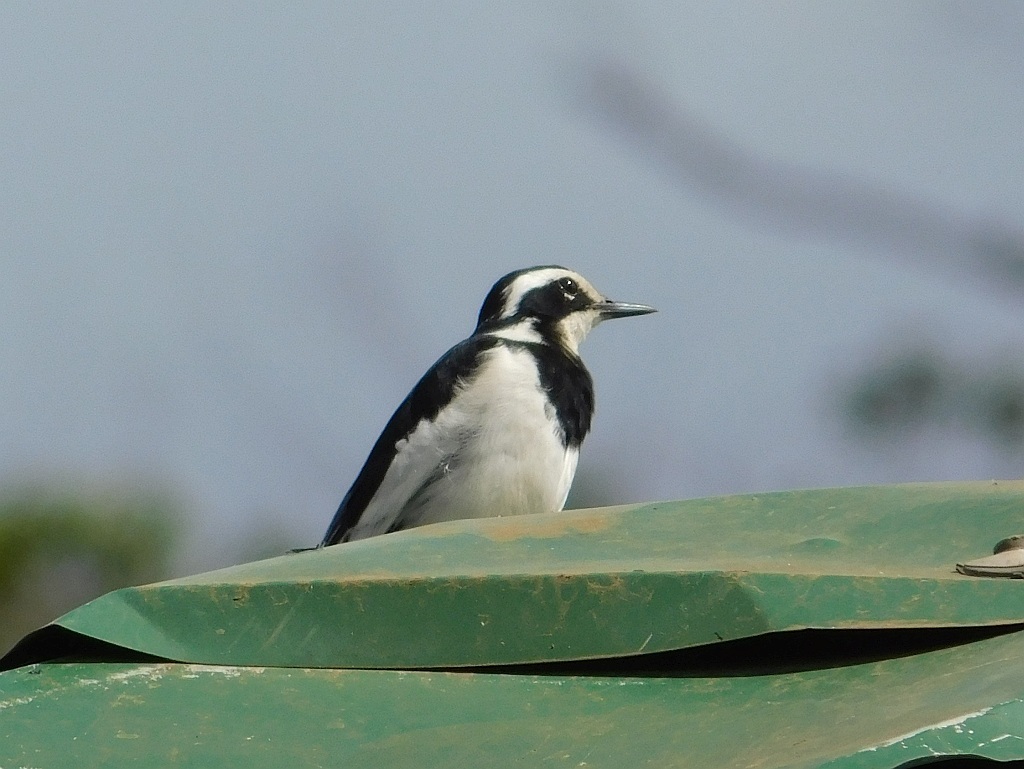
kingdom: Animalia
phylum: Chordata
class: Aves
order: Passeriformes
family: Motacillidae
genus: Motacilla
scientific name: Motacilla aguimp
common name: African pied wagtail
